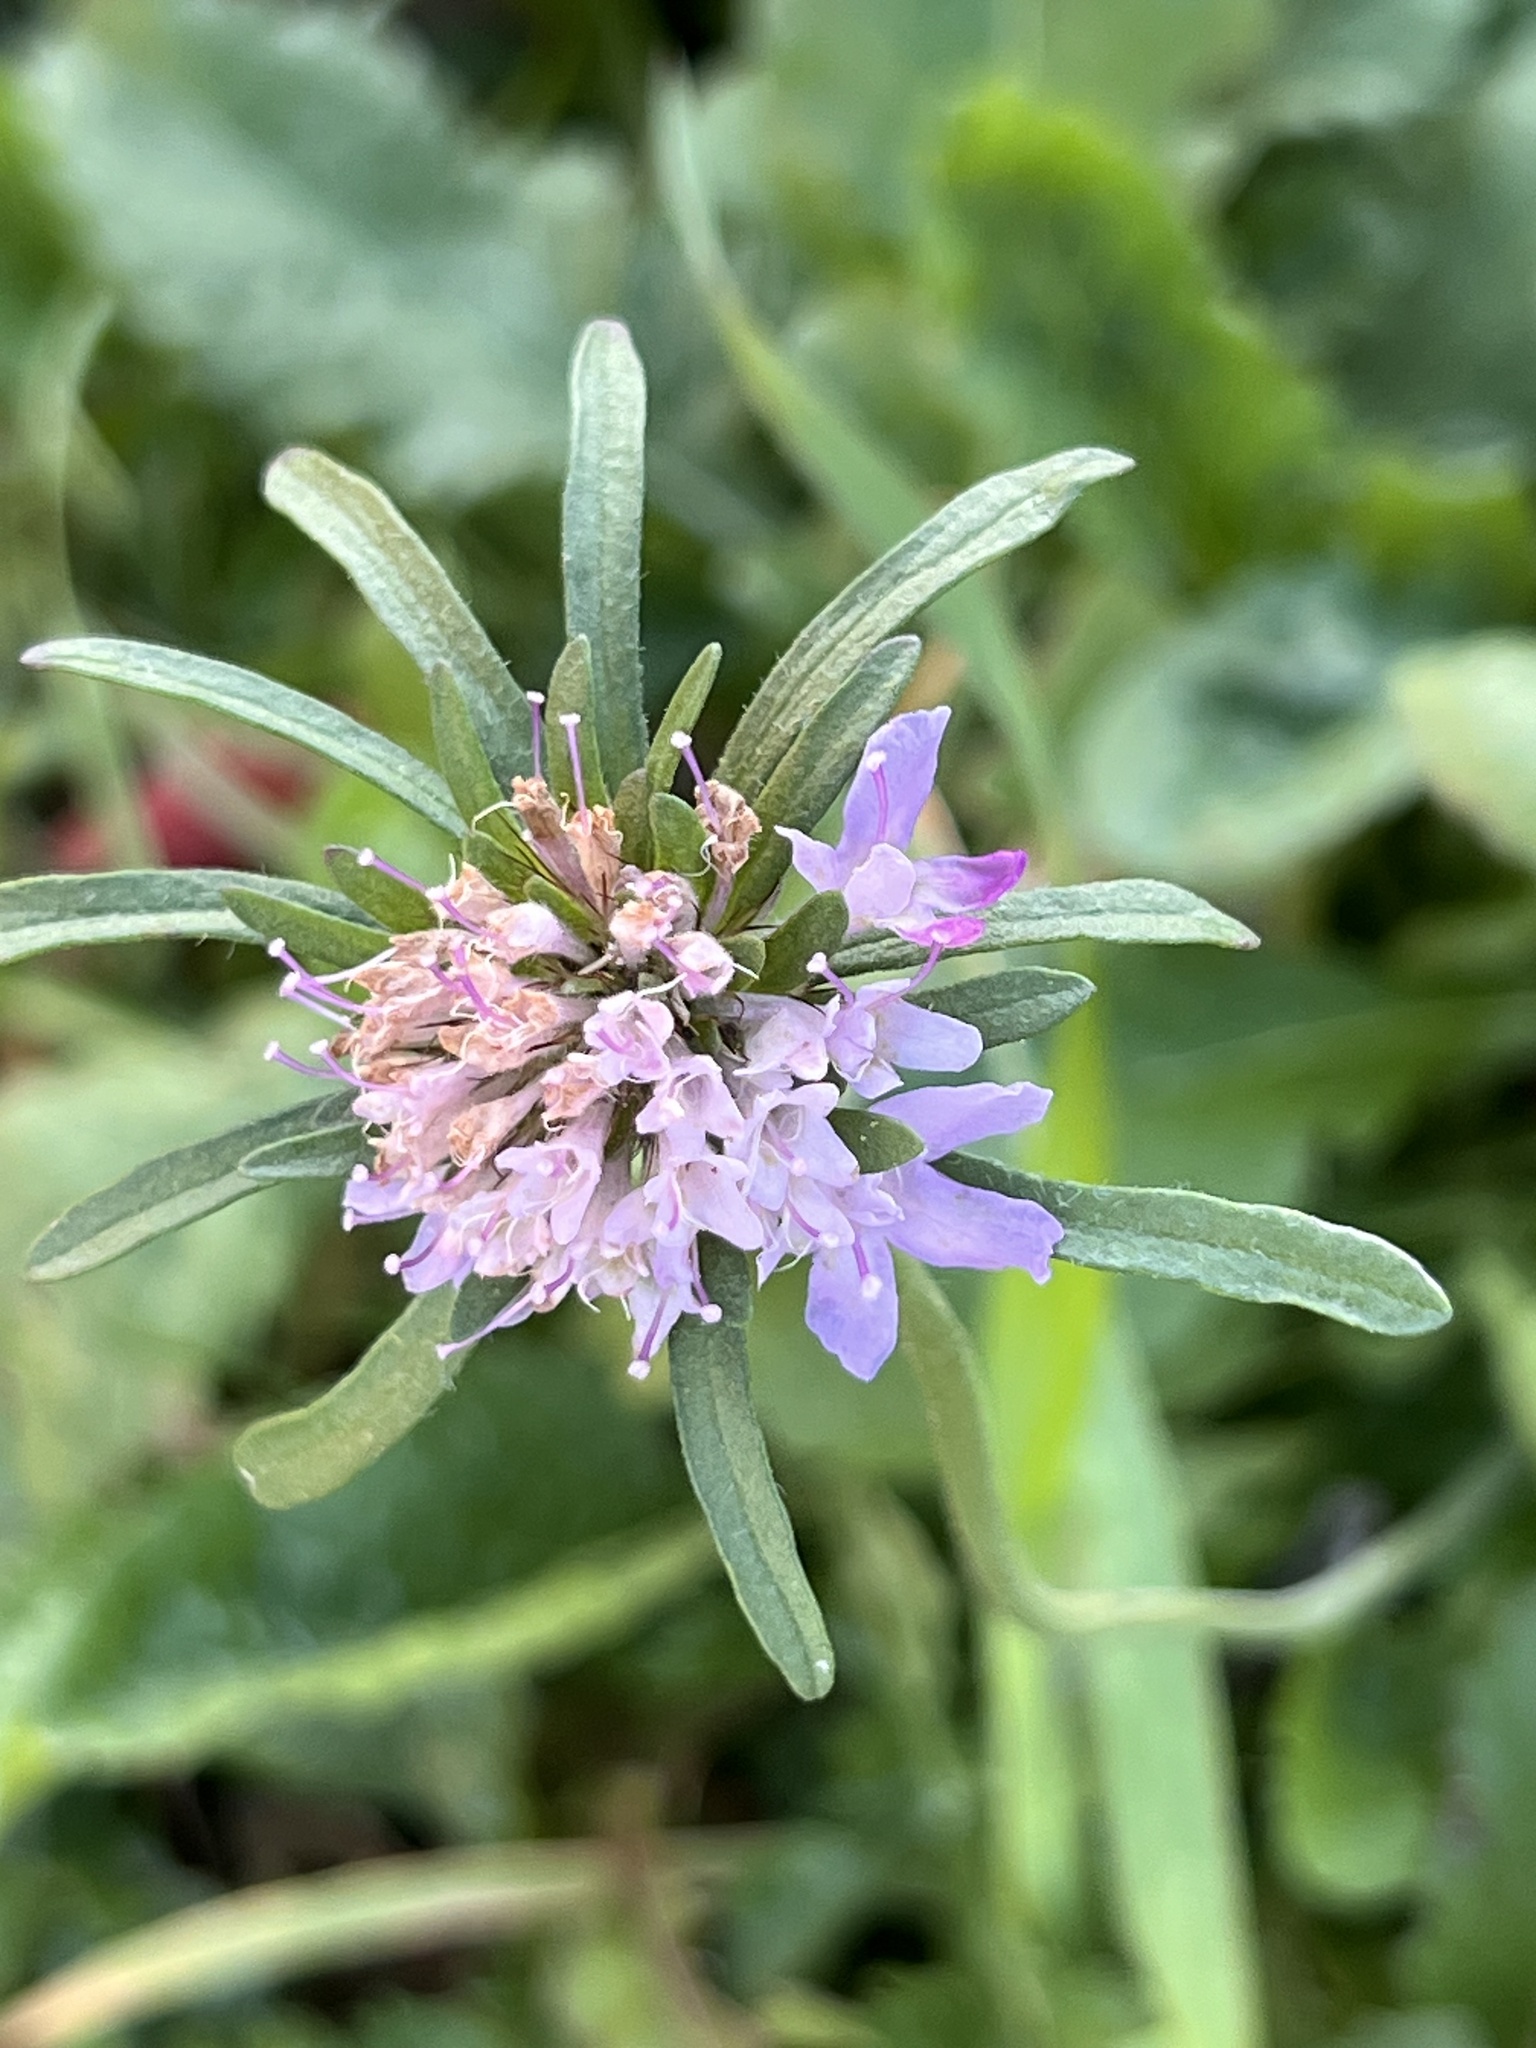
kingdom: Plantae
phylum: Tracheophyta
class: Magnoliopsida
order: Dipsacales
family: Caprifoliaceae
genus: Sixalix
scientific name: Sixalix atropurpurea
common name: Sweet scabious
